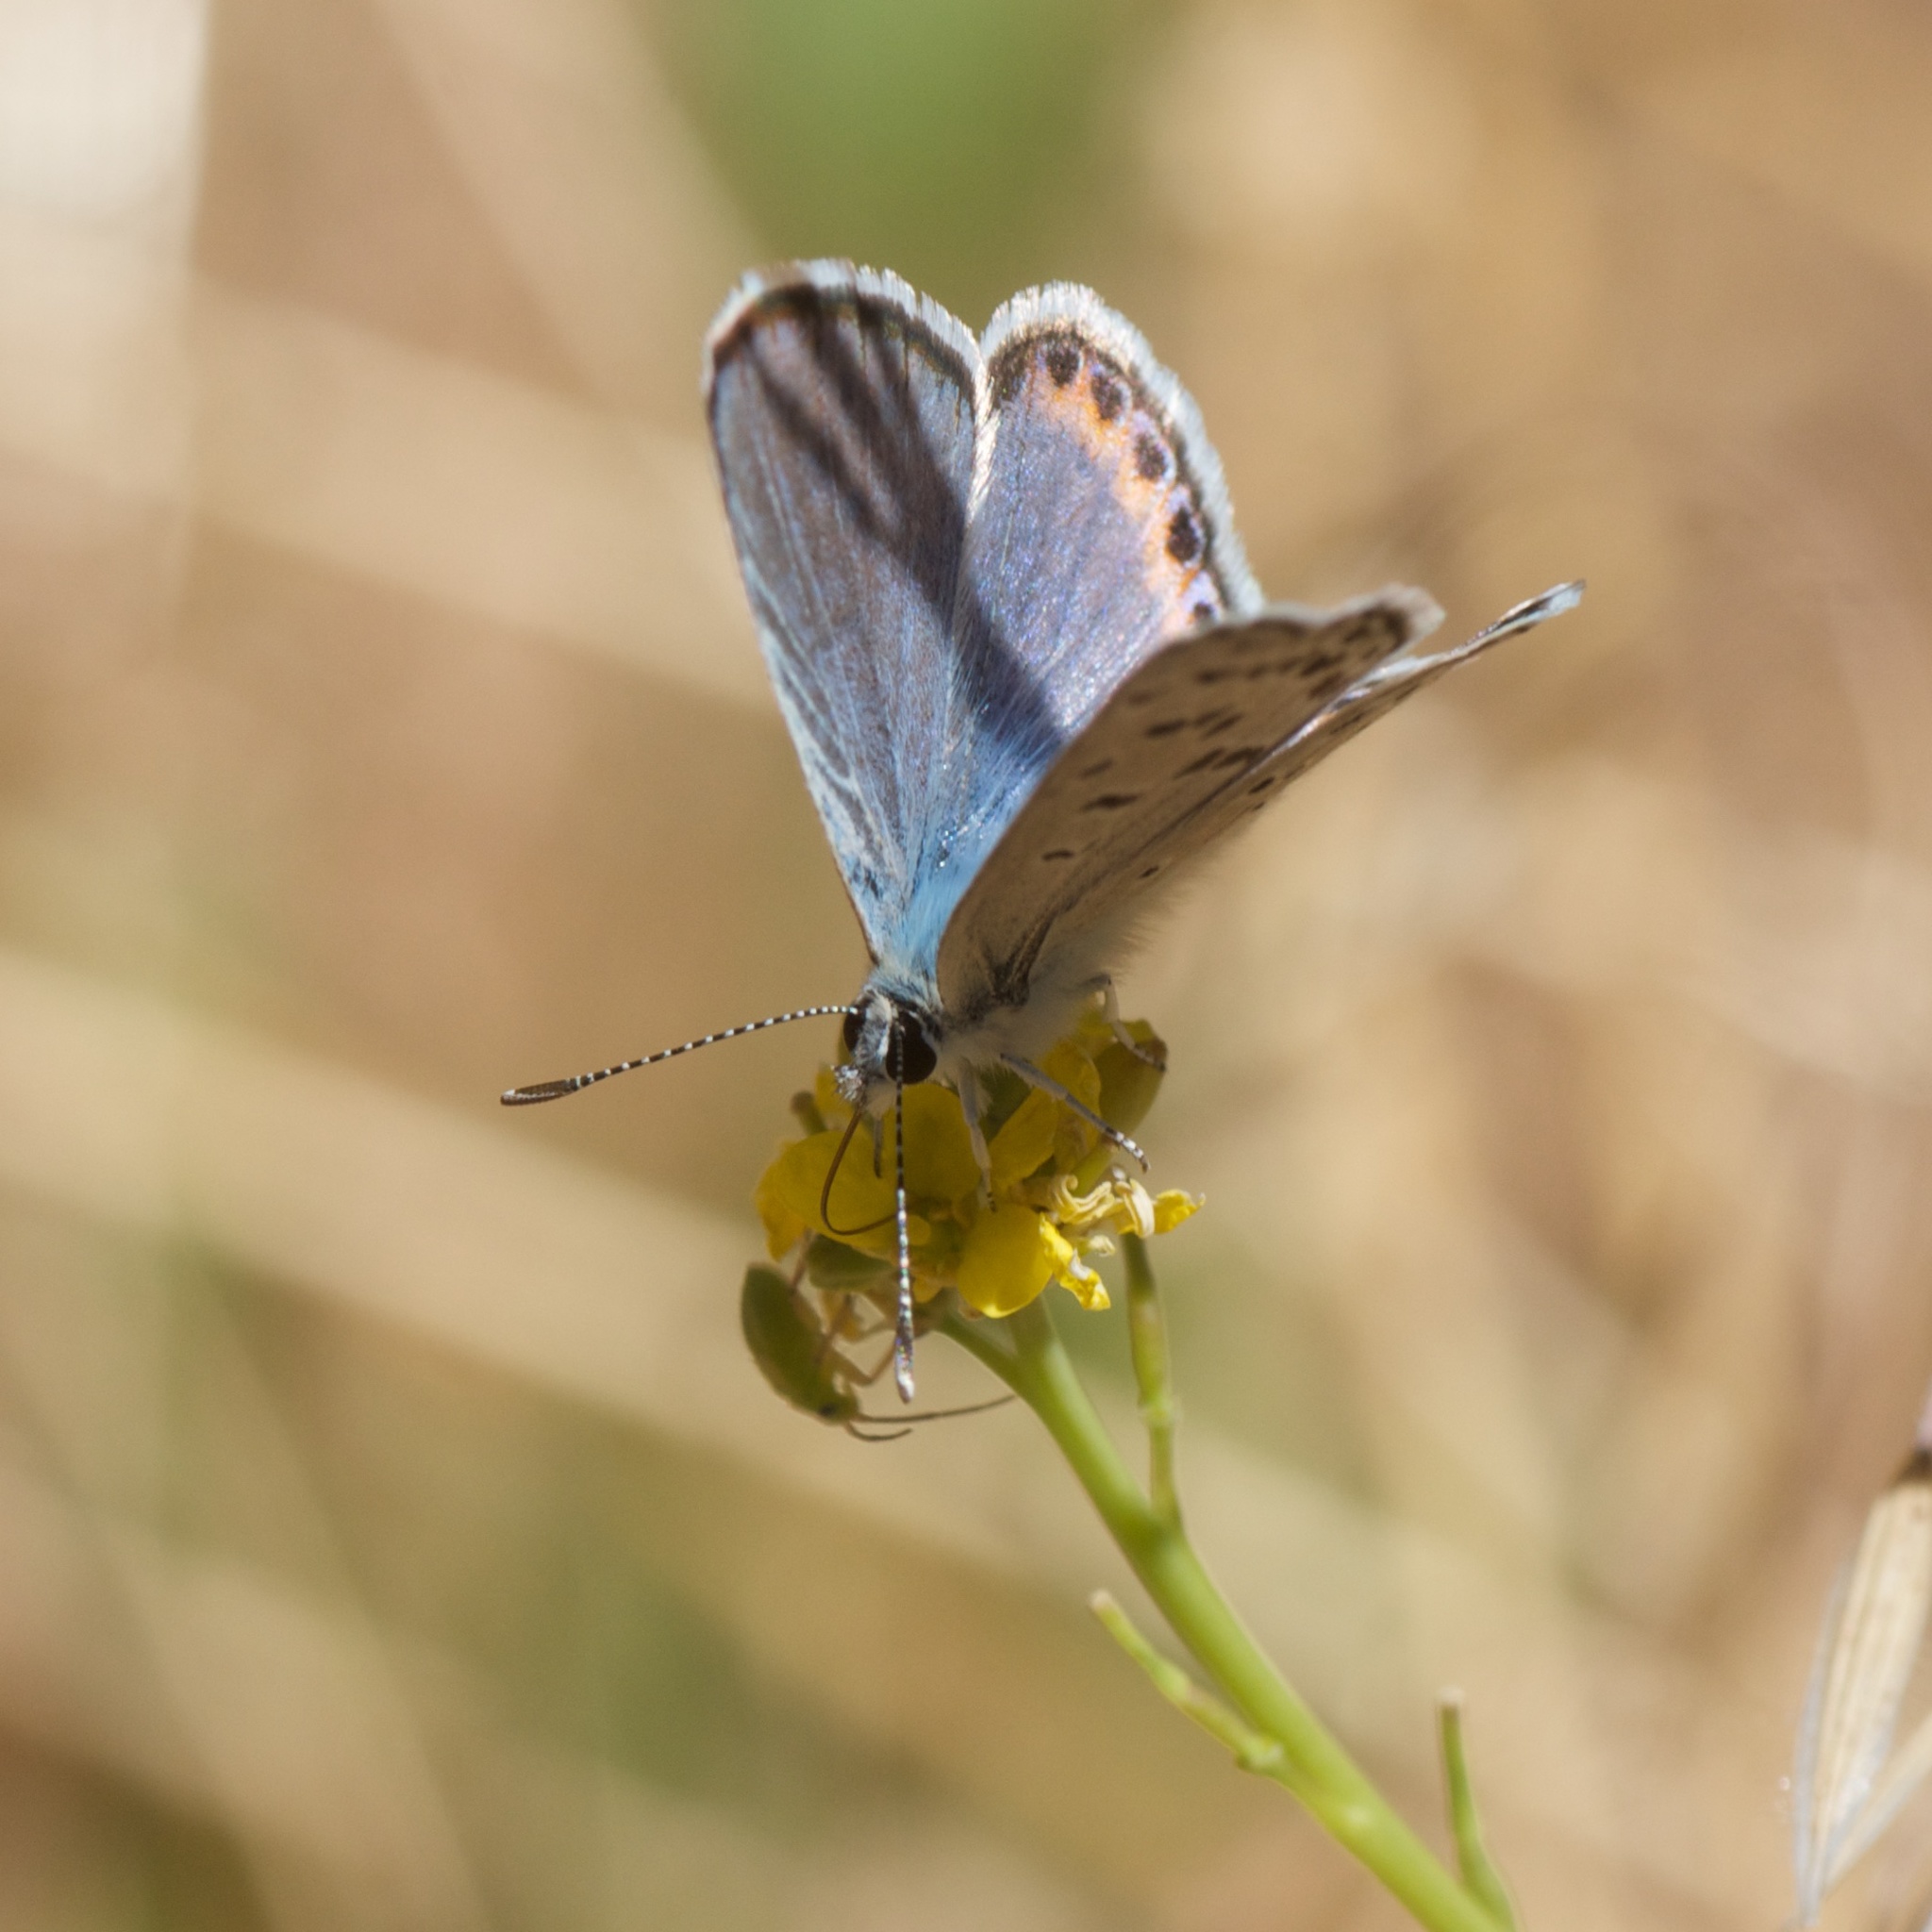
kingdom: Animalia
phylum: Arthropoda
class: Insecta
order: Lepidoptera
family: Lycaenidae
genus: Icaricia
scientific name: Icaricia acmon
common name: Acmon blue
